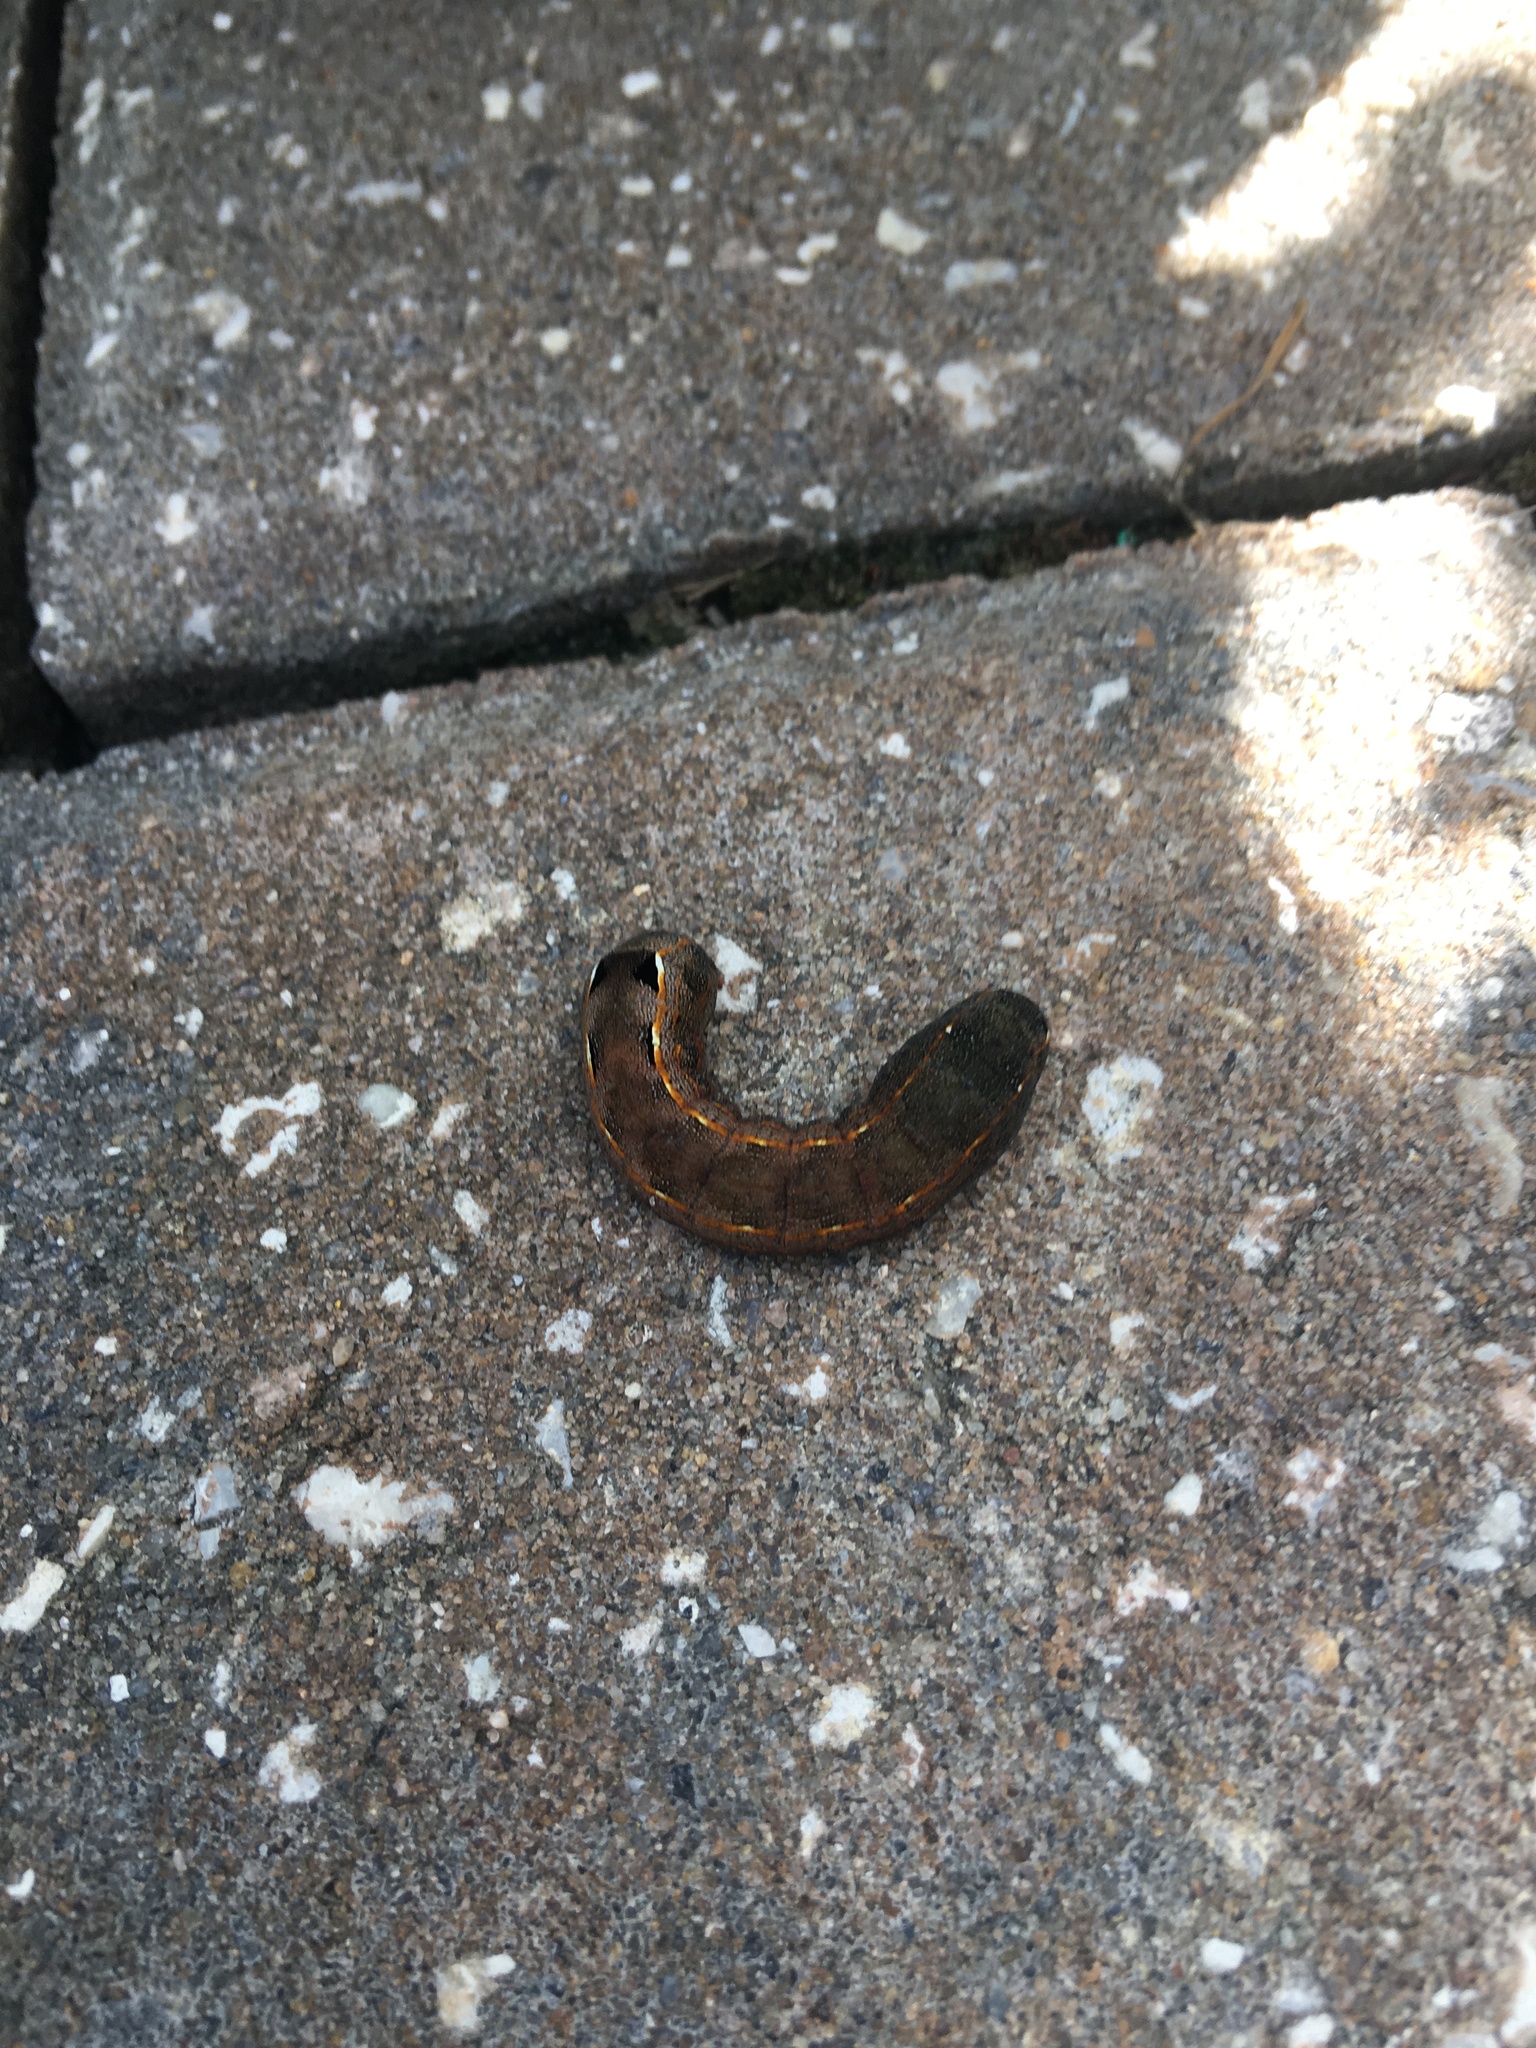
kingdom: Animalia
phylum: Arthropoda
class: Insecta
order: Lepidoptera
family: Noctuidae
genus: Spodoptera
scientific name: Spodoptera eridania
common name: Southern army worm
